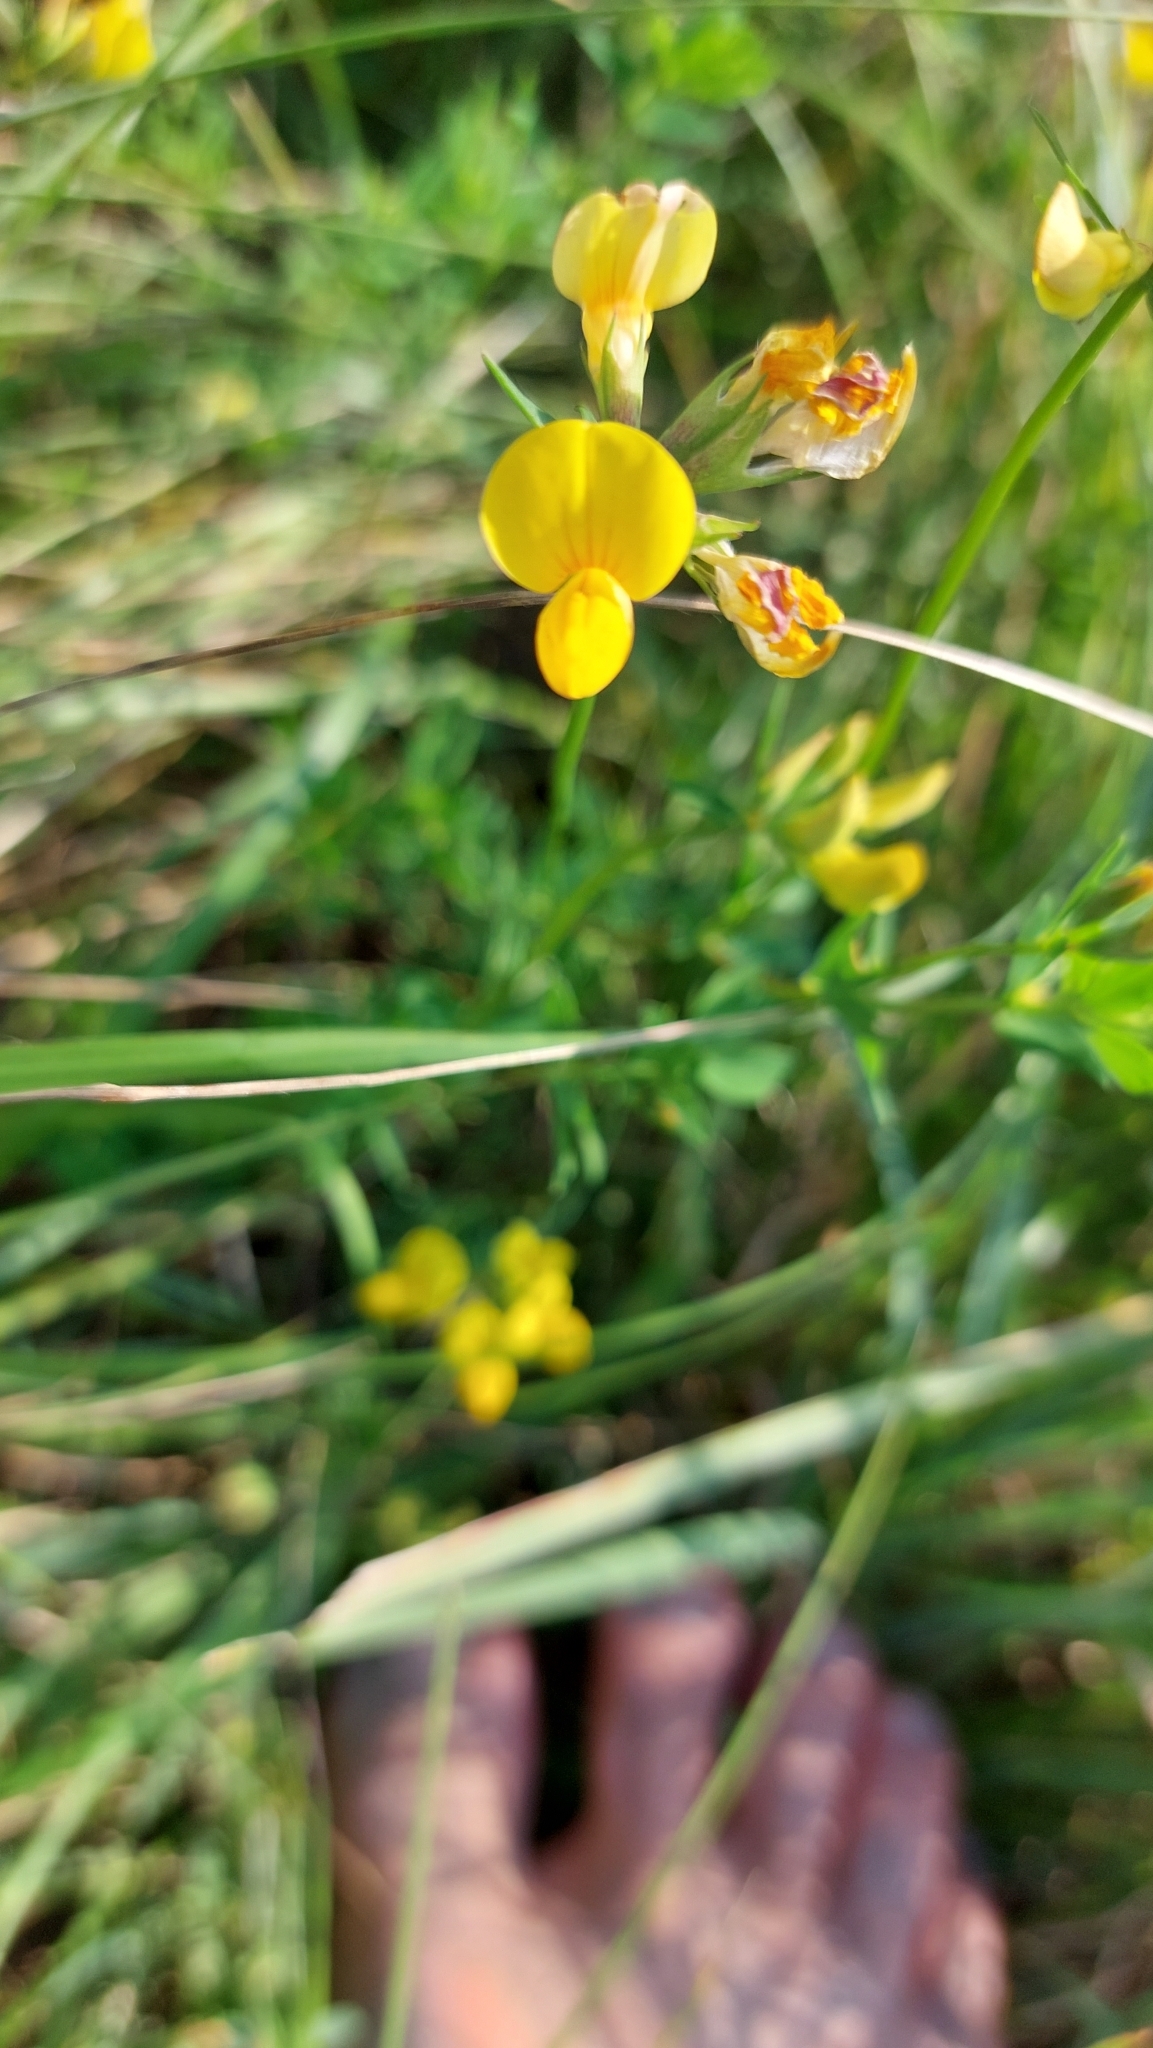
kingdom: Plantae
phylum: Tracheophyta
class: Magnoliopsida
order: Fabales
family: Fabaceae
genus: Lotus
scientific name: Lotus corniculatus
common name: Common bird's-foot-trefoil
